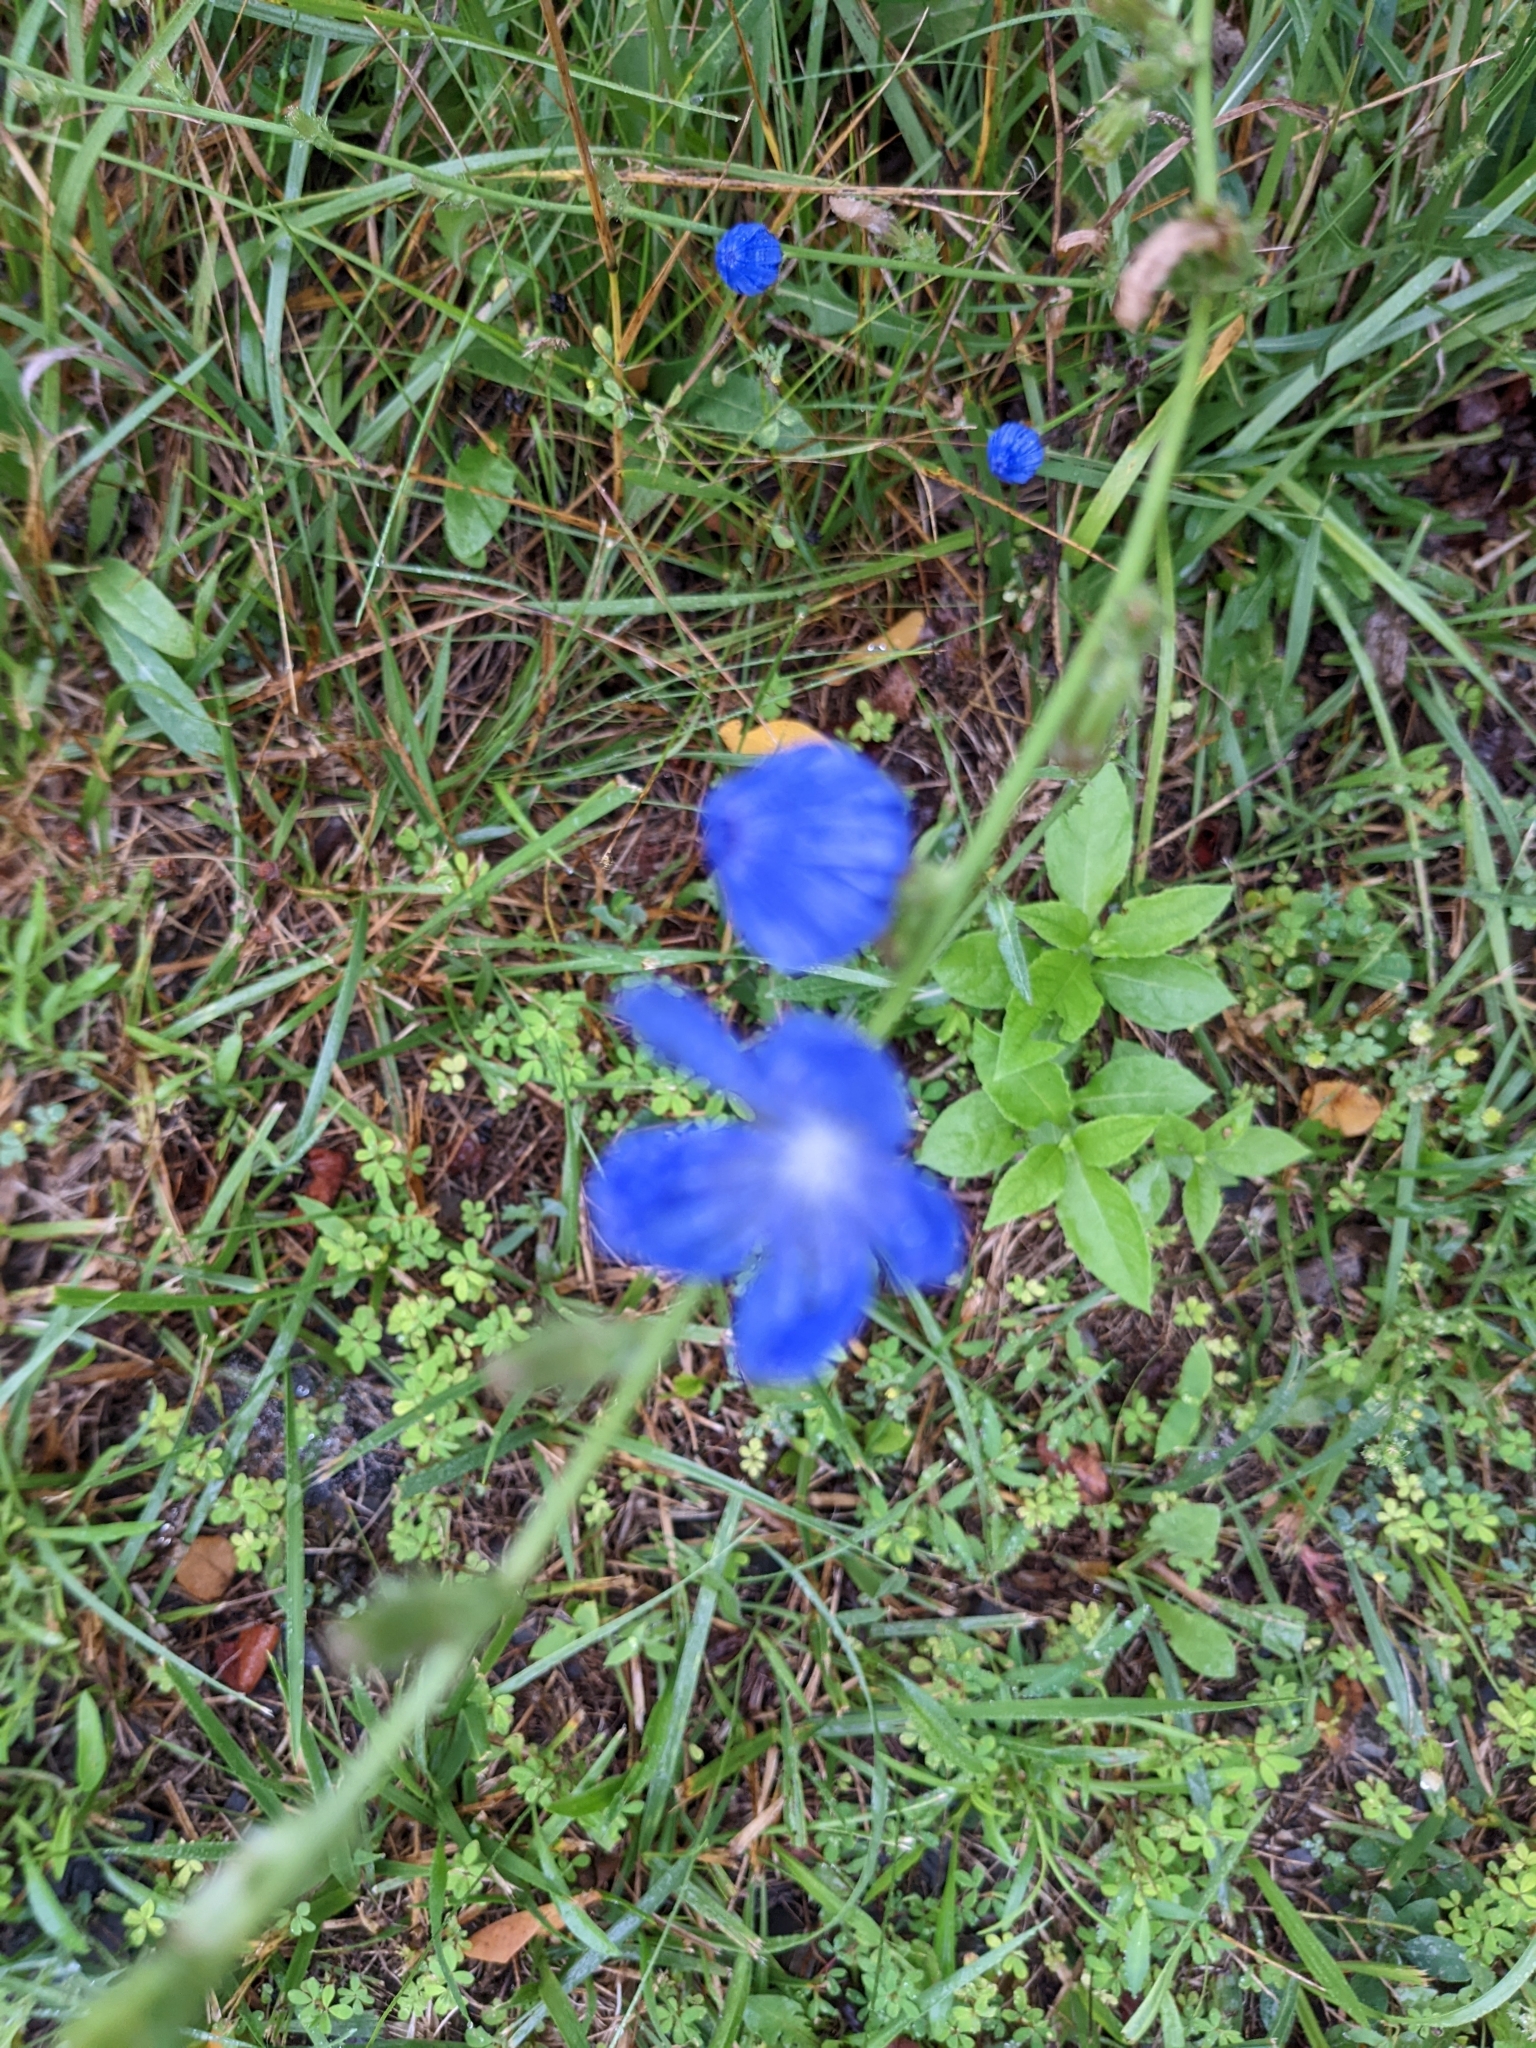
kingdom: Plantae
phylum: Tracheophyta
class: Magnoliopsida
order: Asterales
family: Asteraceae
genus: Cichorium
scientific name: Cichorium intybus
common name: Chicory
